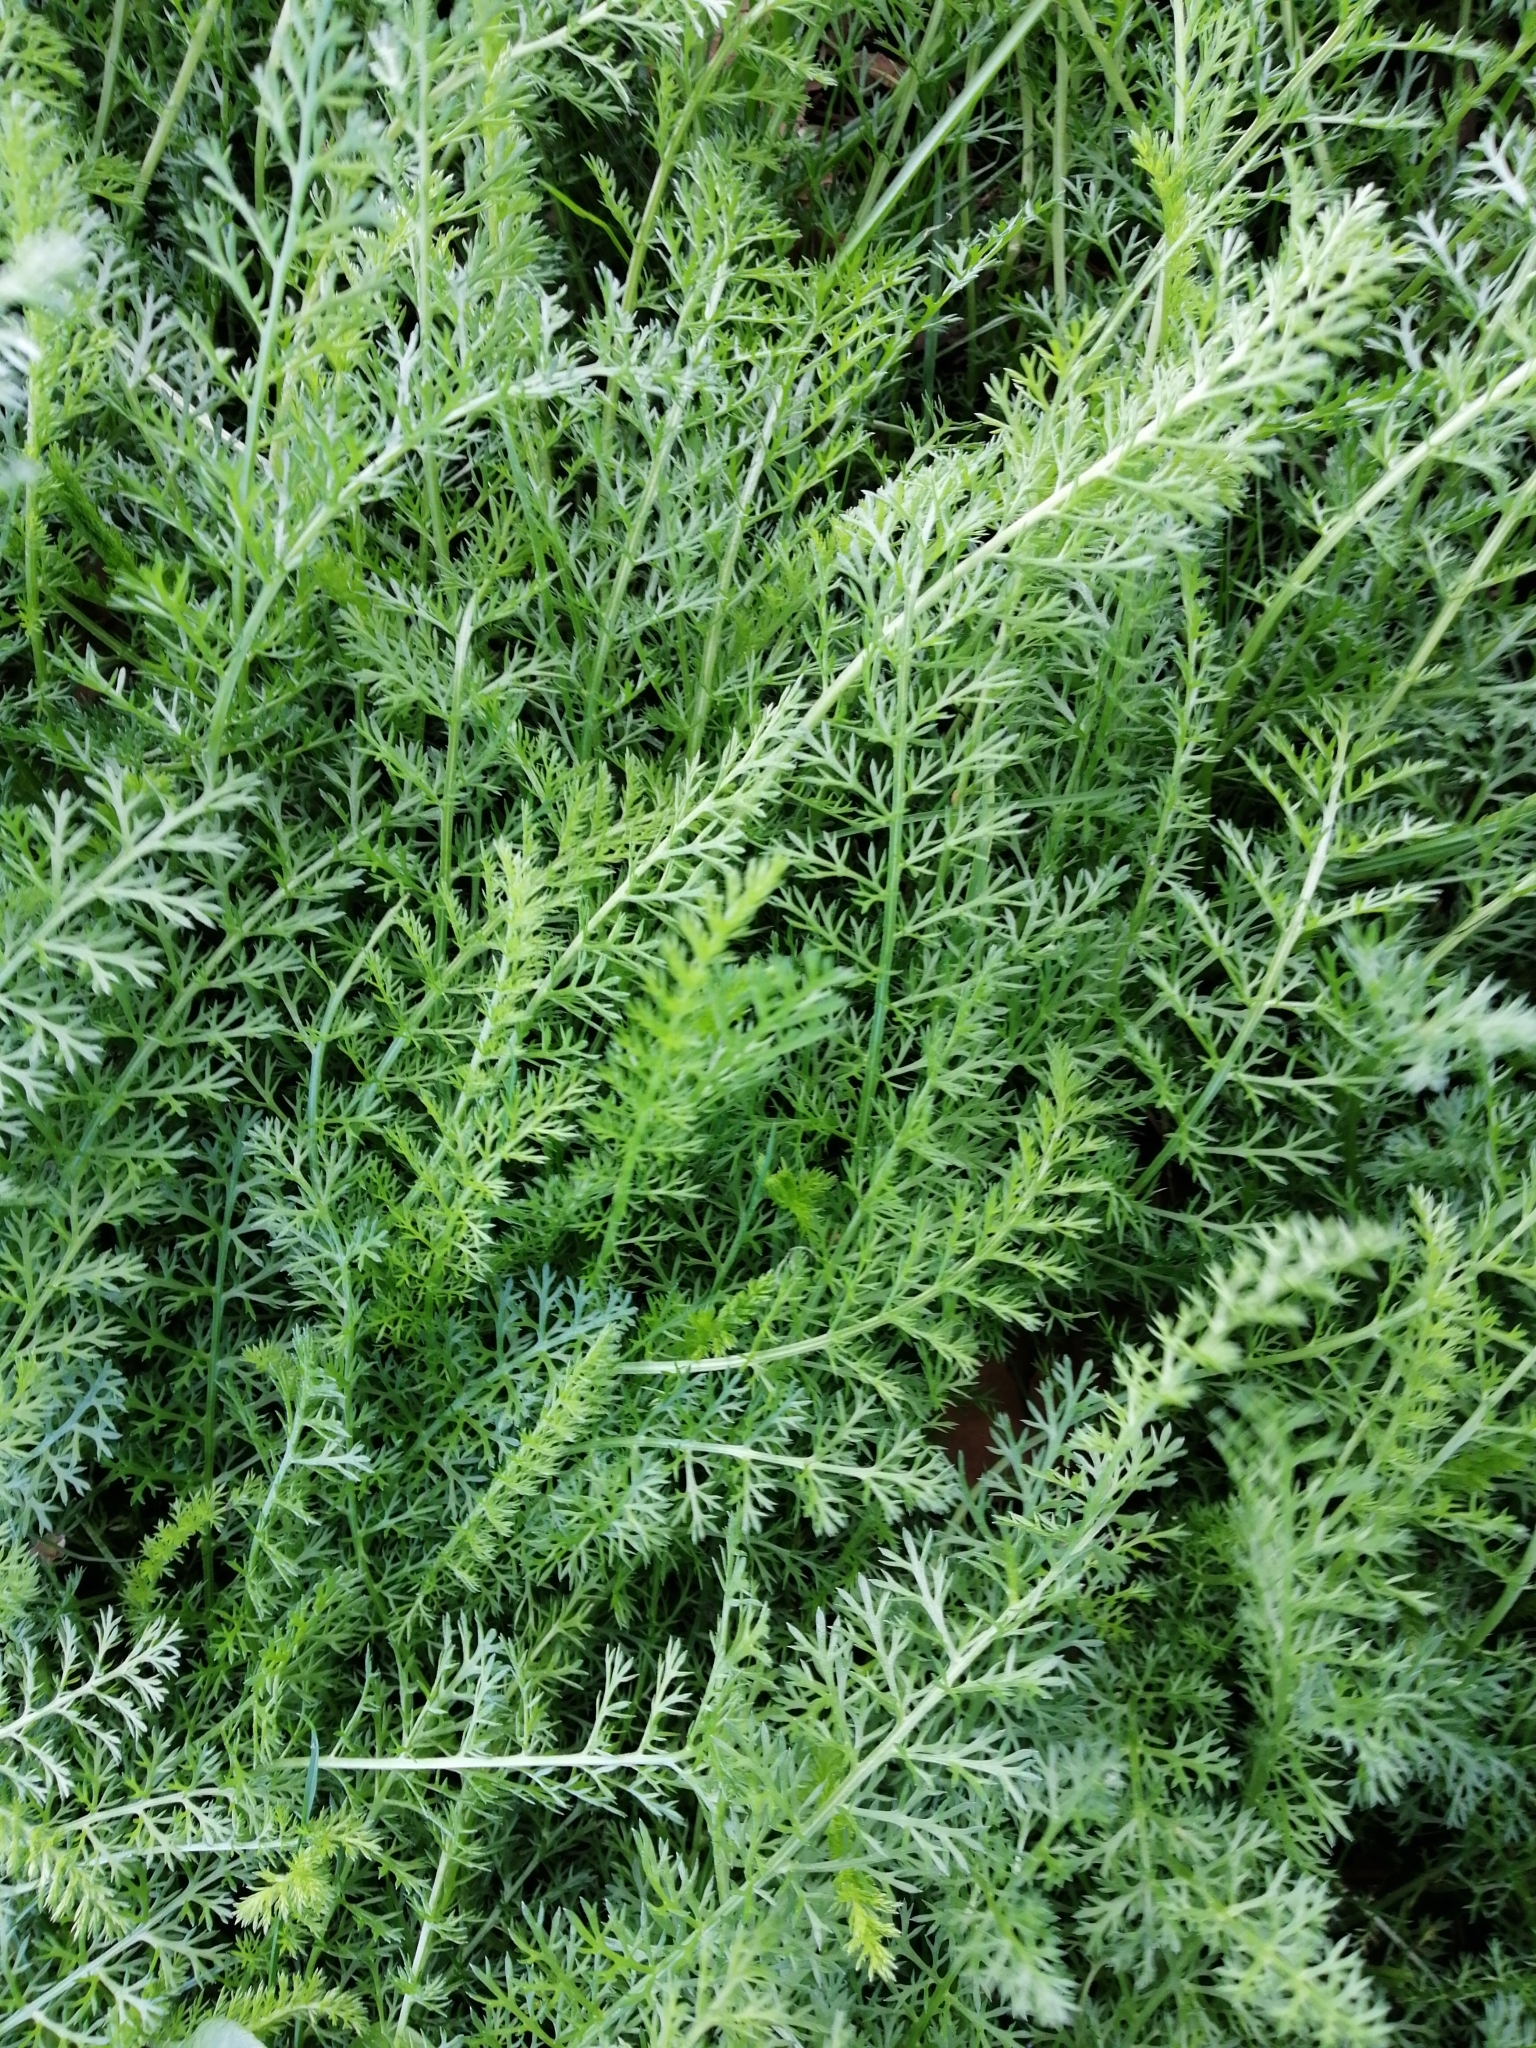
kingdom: Plantae
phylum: Tracheophyta
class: Magnoliopsida
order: Asterales
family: Asteraceae
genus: Achillea
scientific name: Achillea millefolium
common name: Yarrow
